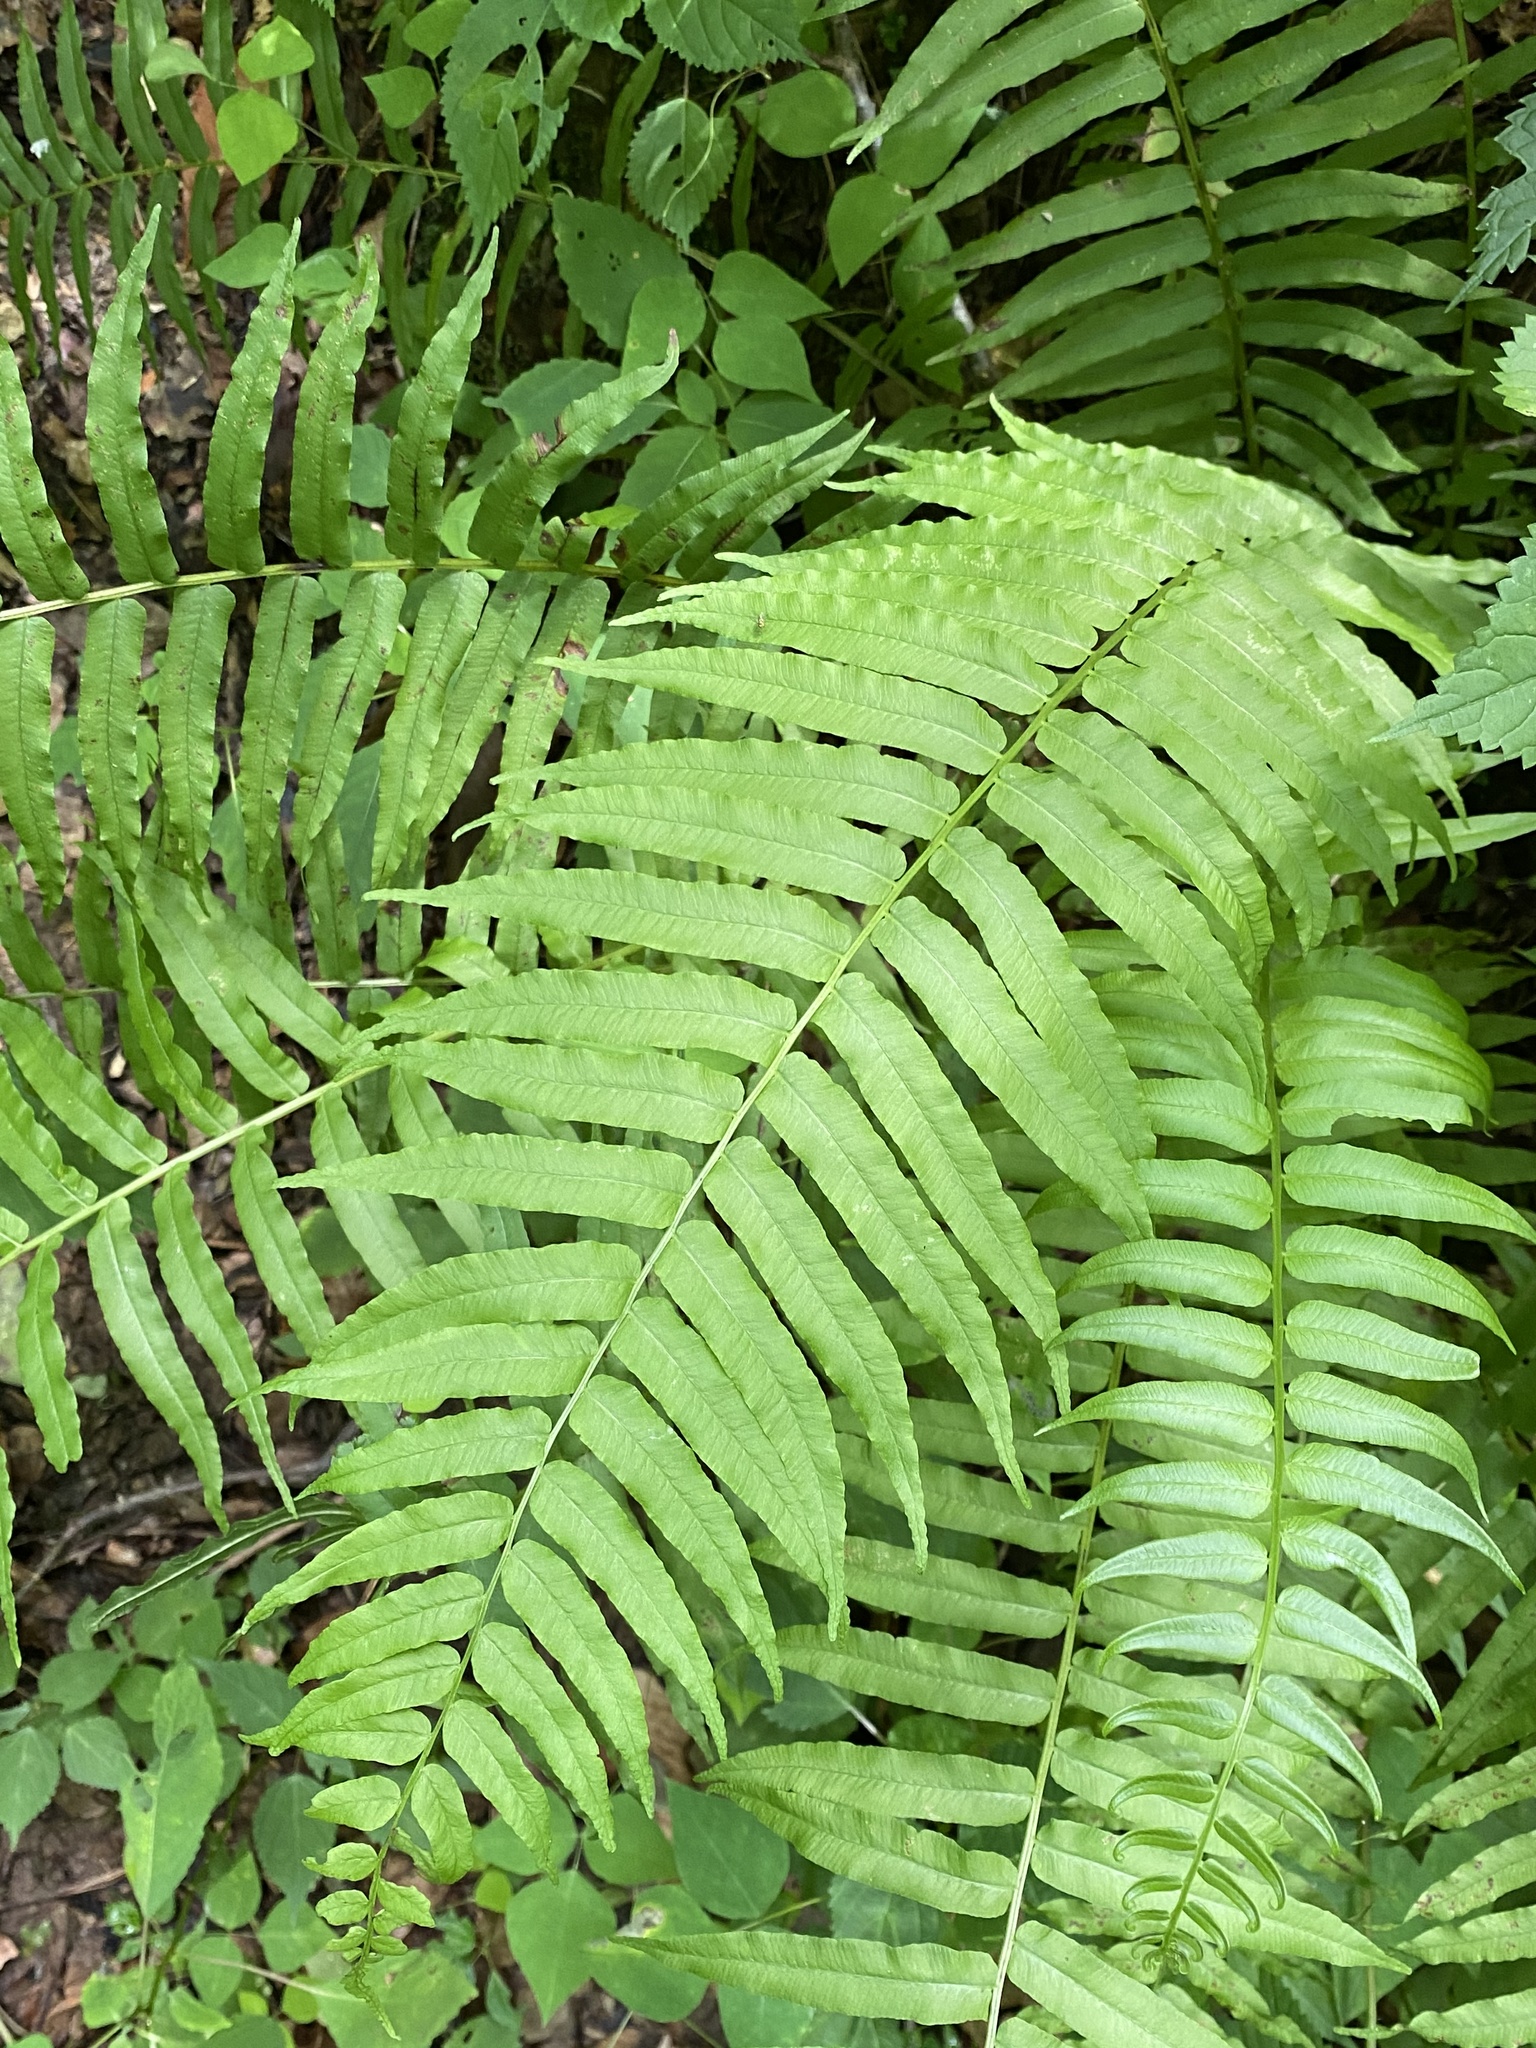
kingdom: Plantae
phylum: Tracheophyta
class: Polypodiopsida
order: Polypodiales
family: Diplaziopsidaceae
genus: Homalosorus
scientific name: Homalosorus pycnocarpos
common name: Glade fern
